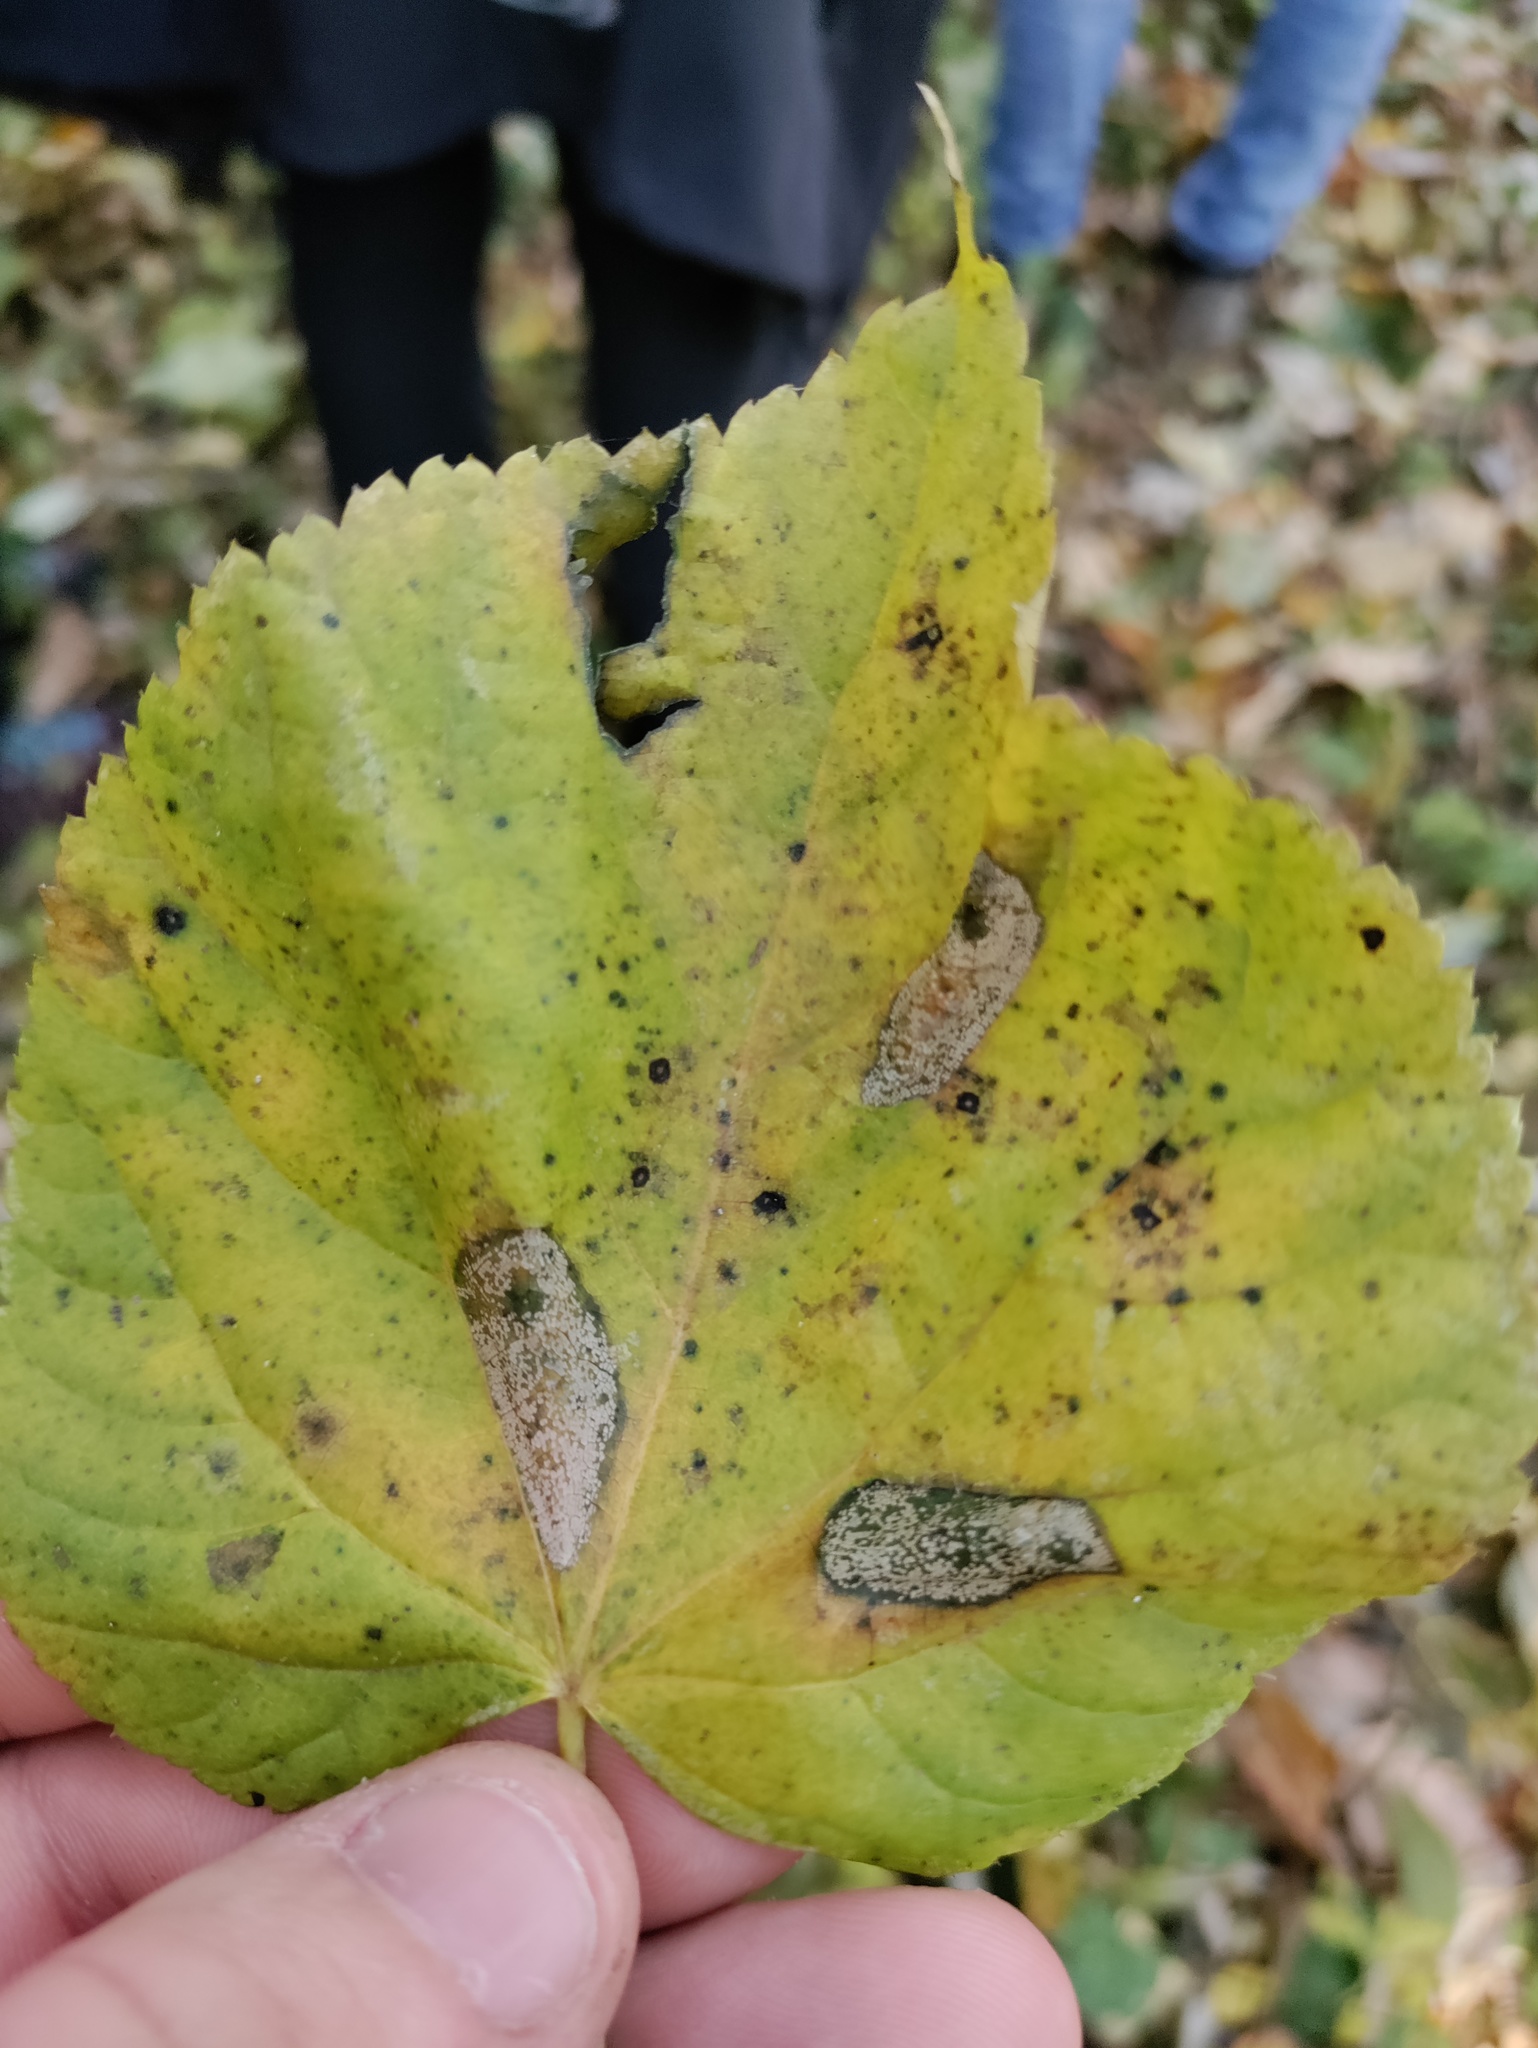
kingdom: Animalia
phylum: Arthropoda
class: Insecta
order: Lepidoptera
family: Gracillariidae
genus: Phyllonorycter
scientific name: Phyllonorycter issikii
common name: Linden midget
